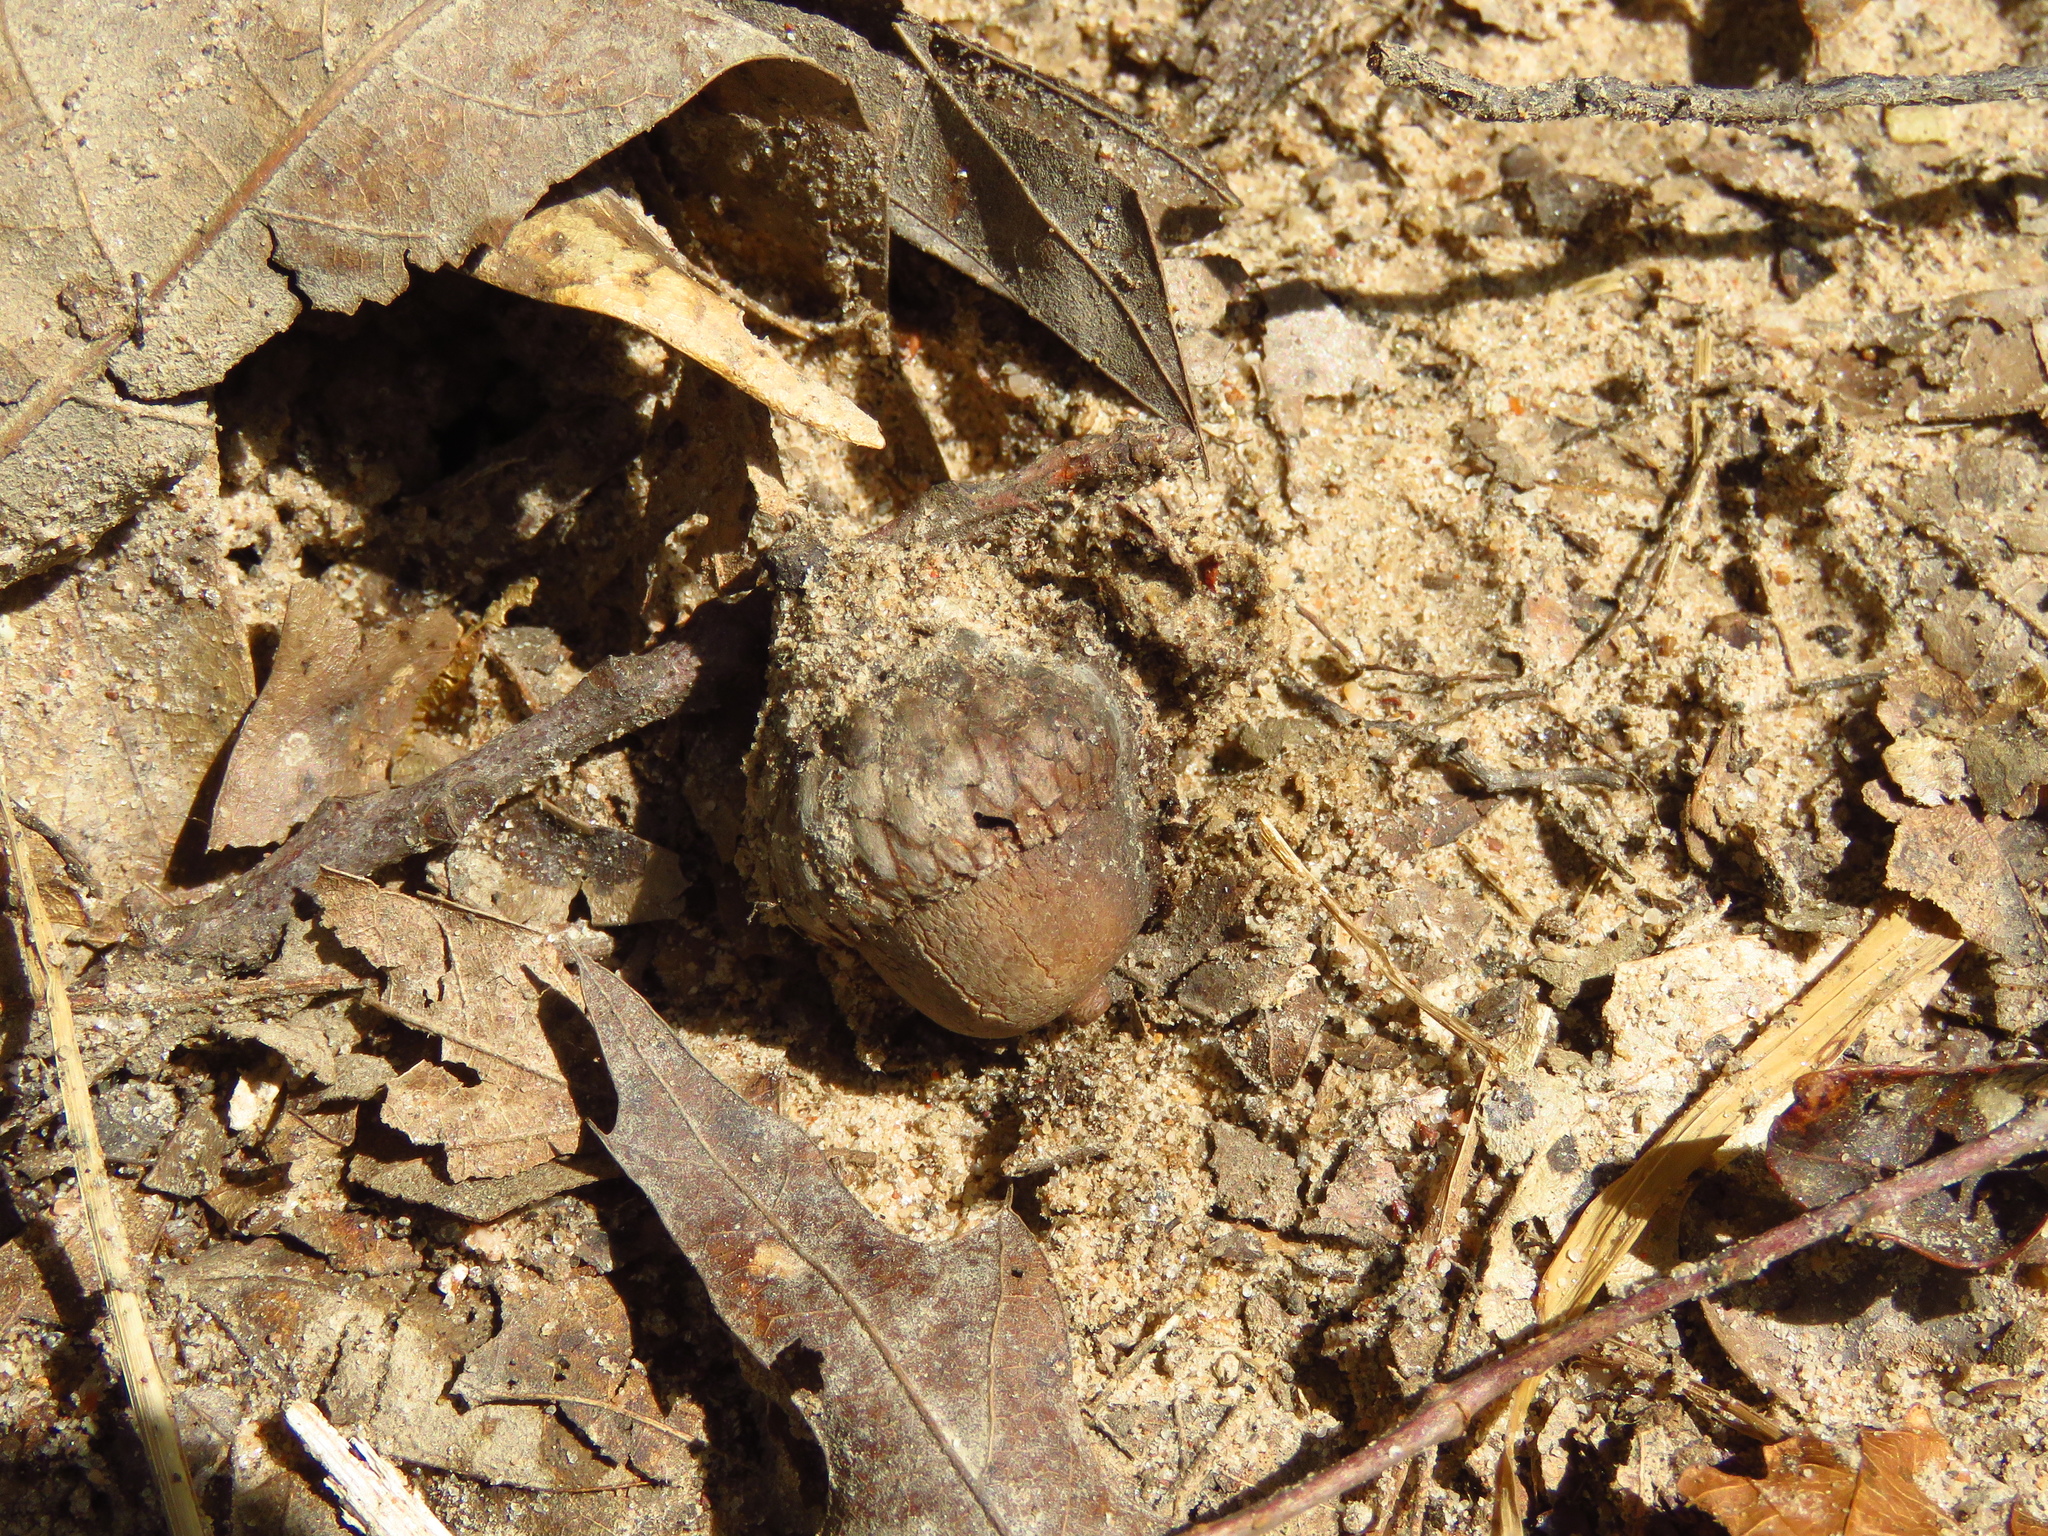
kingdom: Plantae
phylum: Tracheophyta
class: Magnoliopsida
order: Fagales
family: Fagaceae
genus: Quercus
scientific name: Quercus macrocarpa
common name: Bur oak
